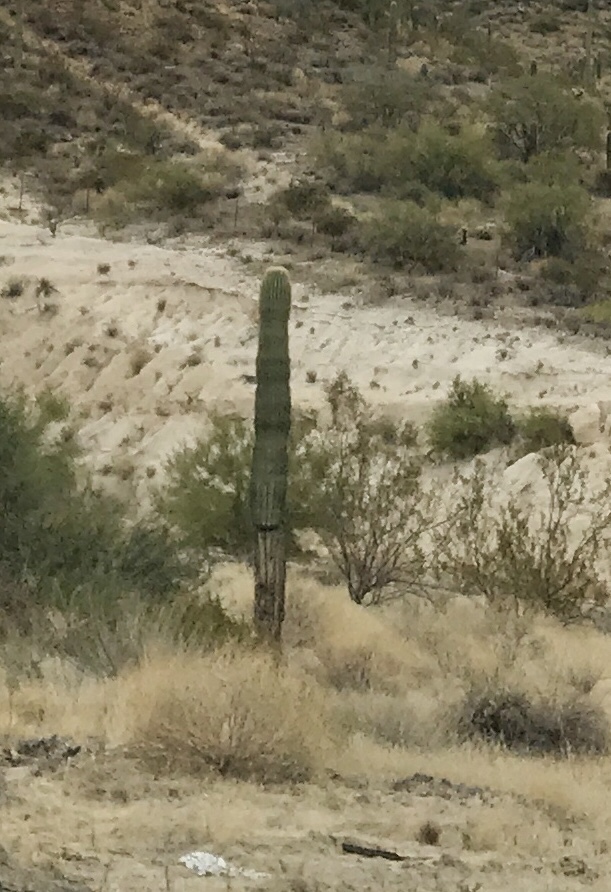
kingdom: Plantae
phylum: Tracheophyta
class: Magnoliopsida
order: Caryophyllales
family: Cactaceae
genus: Carnegiea
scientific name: Carnegiea gigantea
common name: Saguaro
